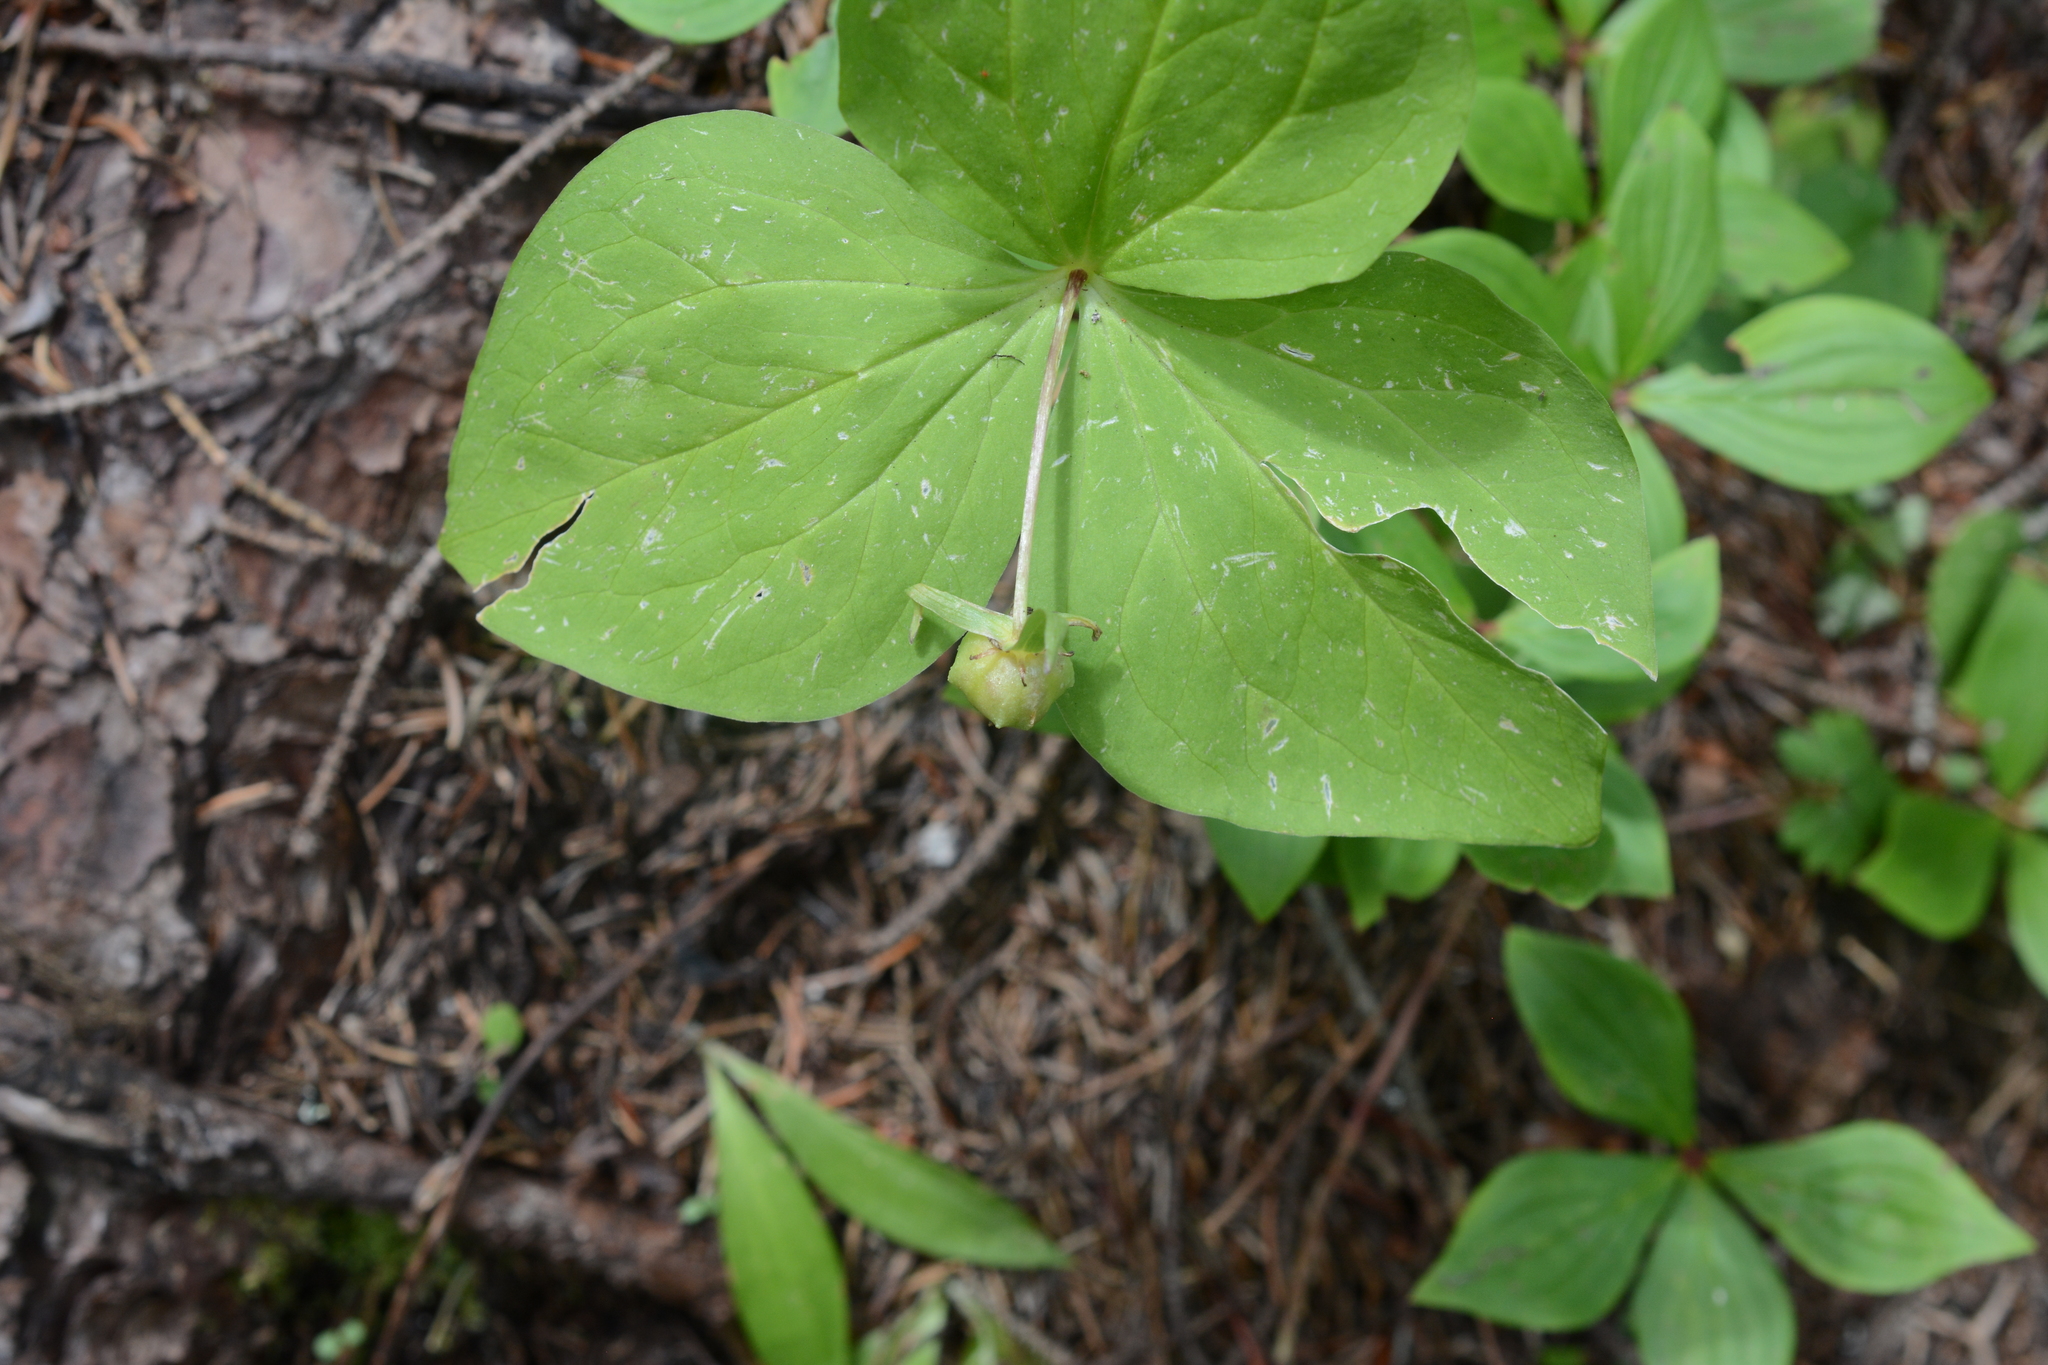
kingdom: Plantae
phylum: Tracheophyta
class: Liliopsida
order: Liliales
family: Melanthiaceae
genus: Trillium
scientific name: Trillium ovatum
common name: Pacific trillium
